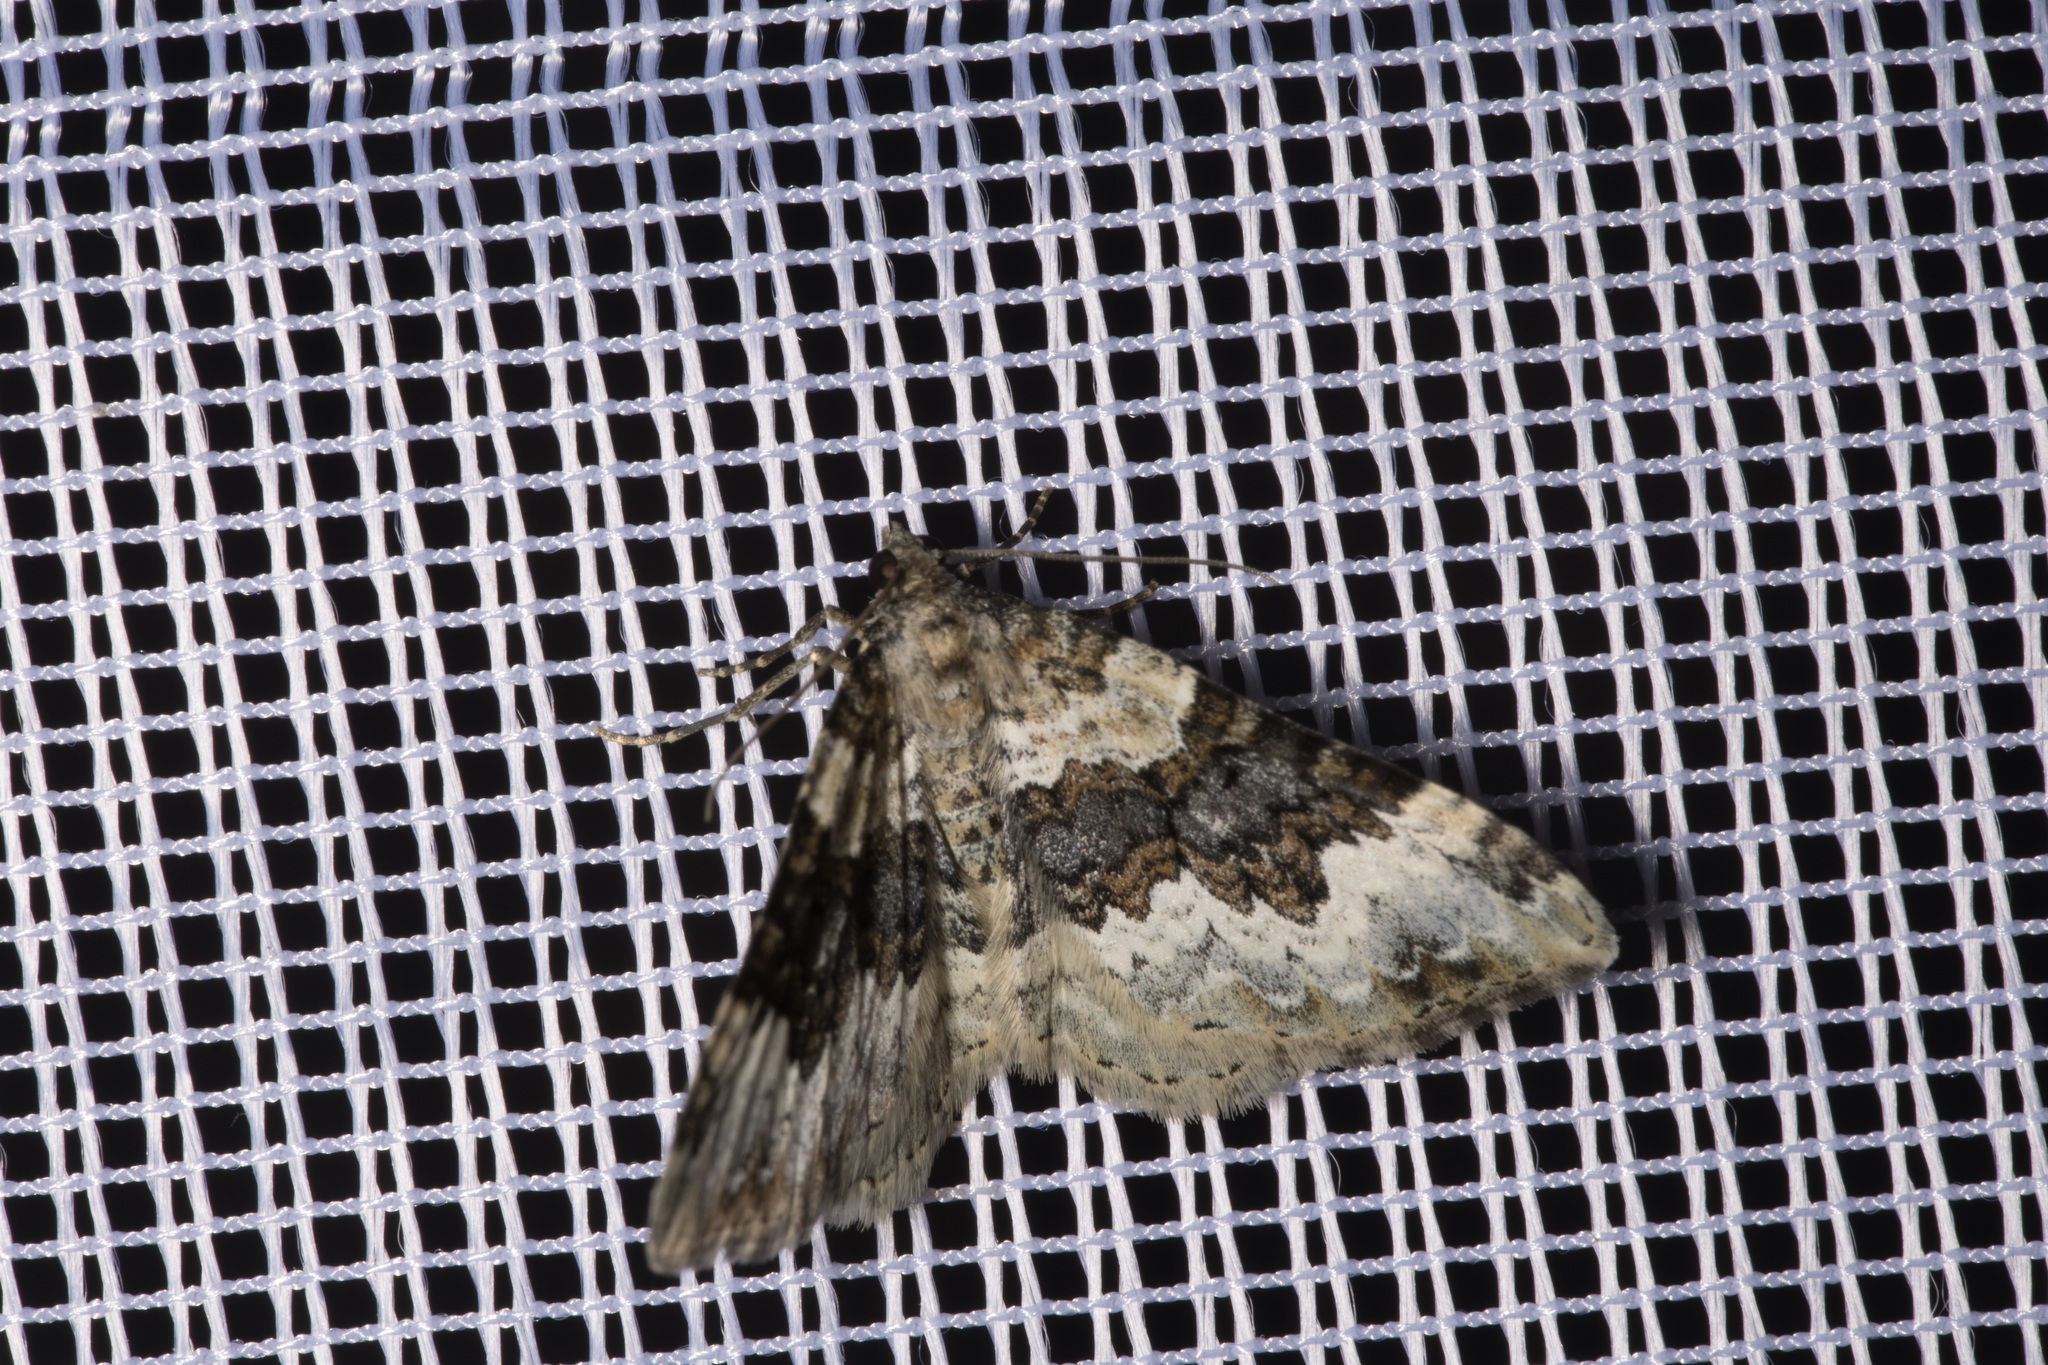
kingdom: Animalia
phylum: Arthropoda
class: Insecta
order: Lepidoptera
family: Geometridae
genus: Epirrhoe
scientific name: Epirrhoe galiata
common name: Galium carpet
